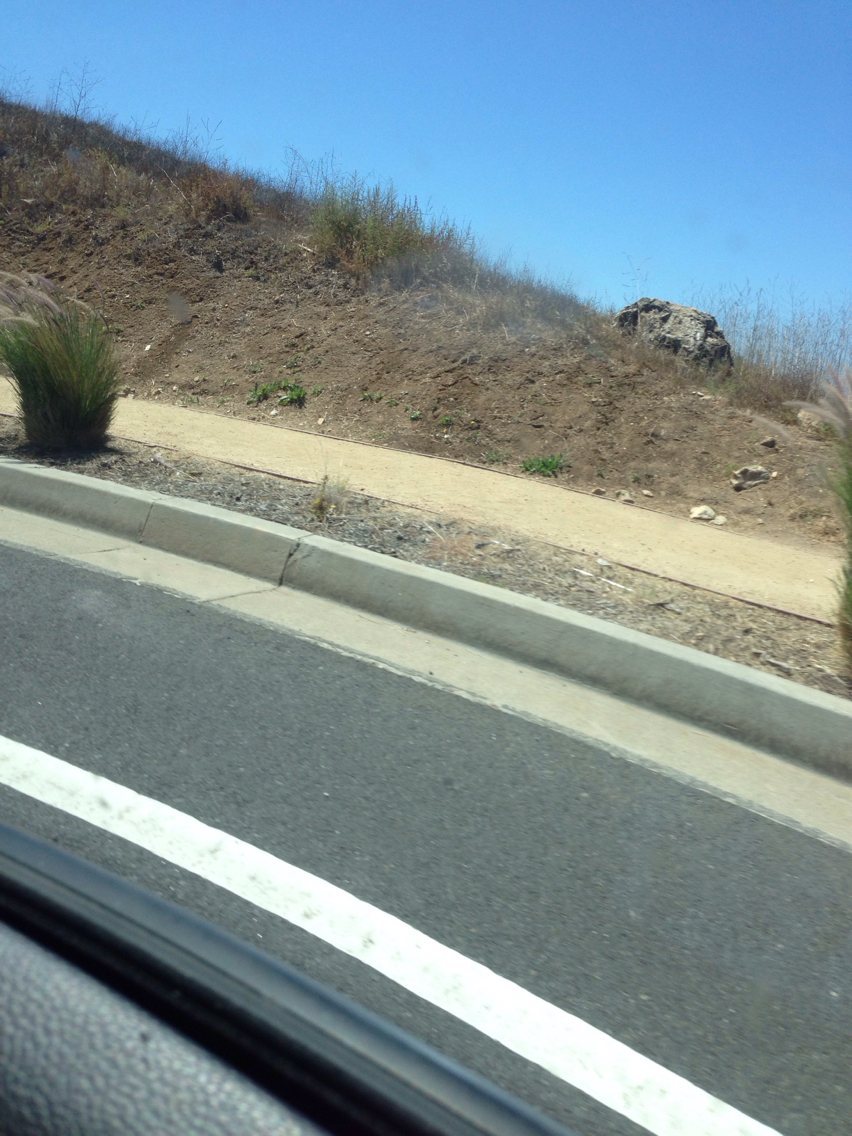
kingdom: Plantae
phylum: Tracheophyta
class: Liliopsida
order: Poales
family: Poaceae
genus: Cenchrus
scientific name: Cenchrus setaceus
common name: Crimson fountaingrass
